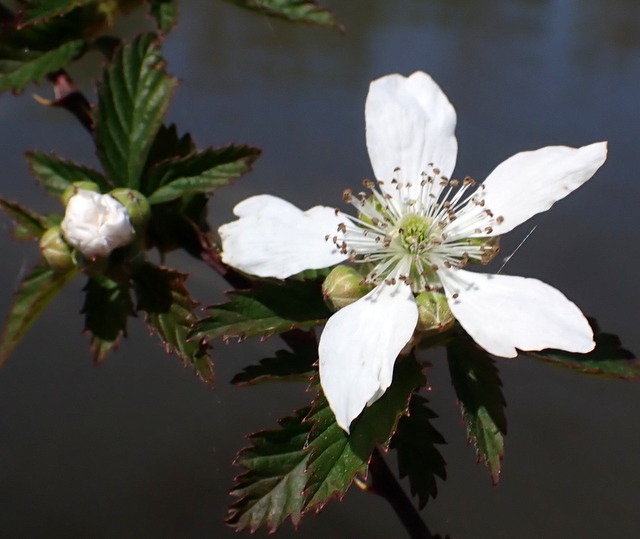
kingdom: Plantae
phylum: Tracheophyta
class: Magnoliopsida
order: Rosales
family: Rosaceae
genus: Rubus
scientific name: Rubus pensilvanicus
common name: Pennsylvania blackberry
